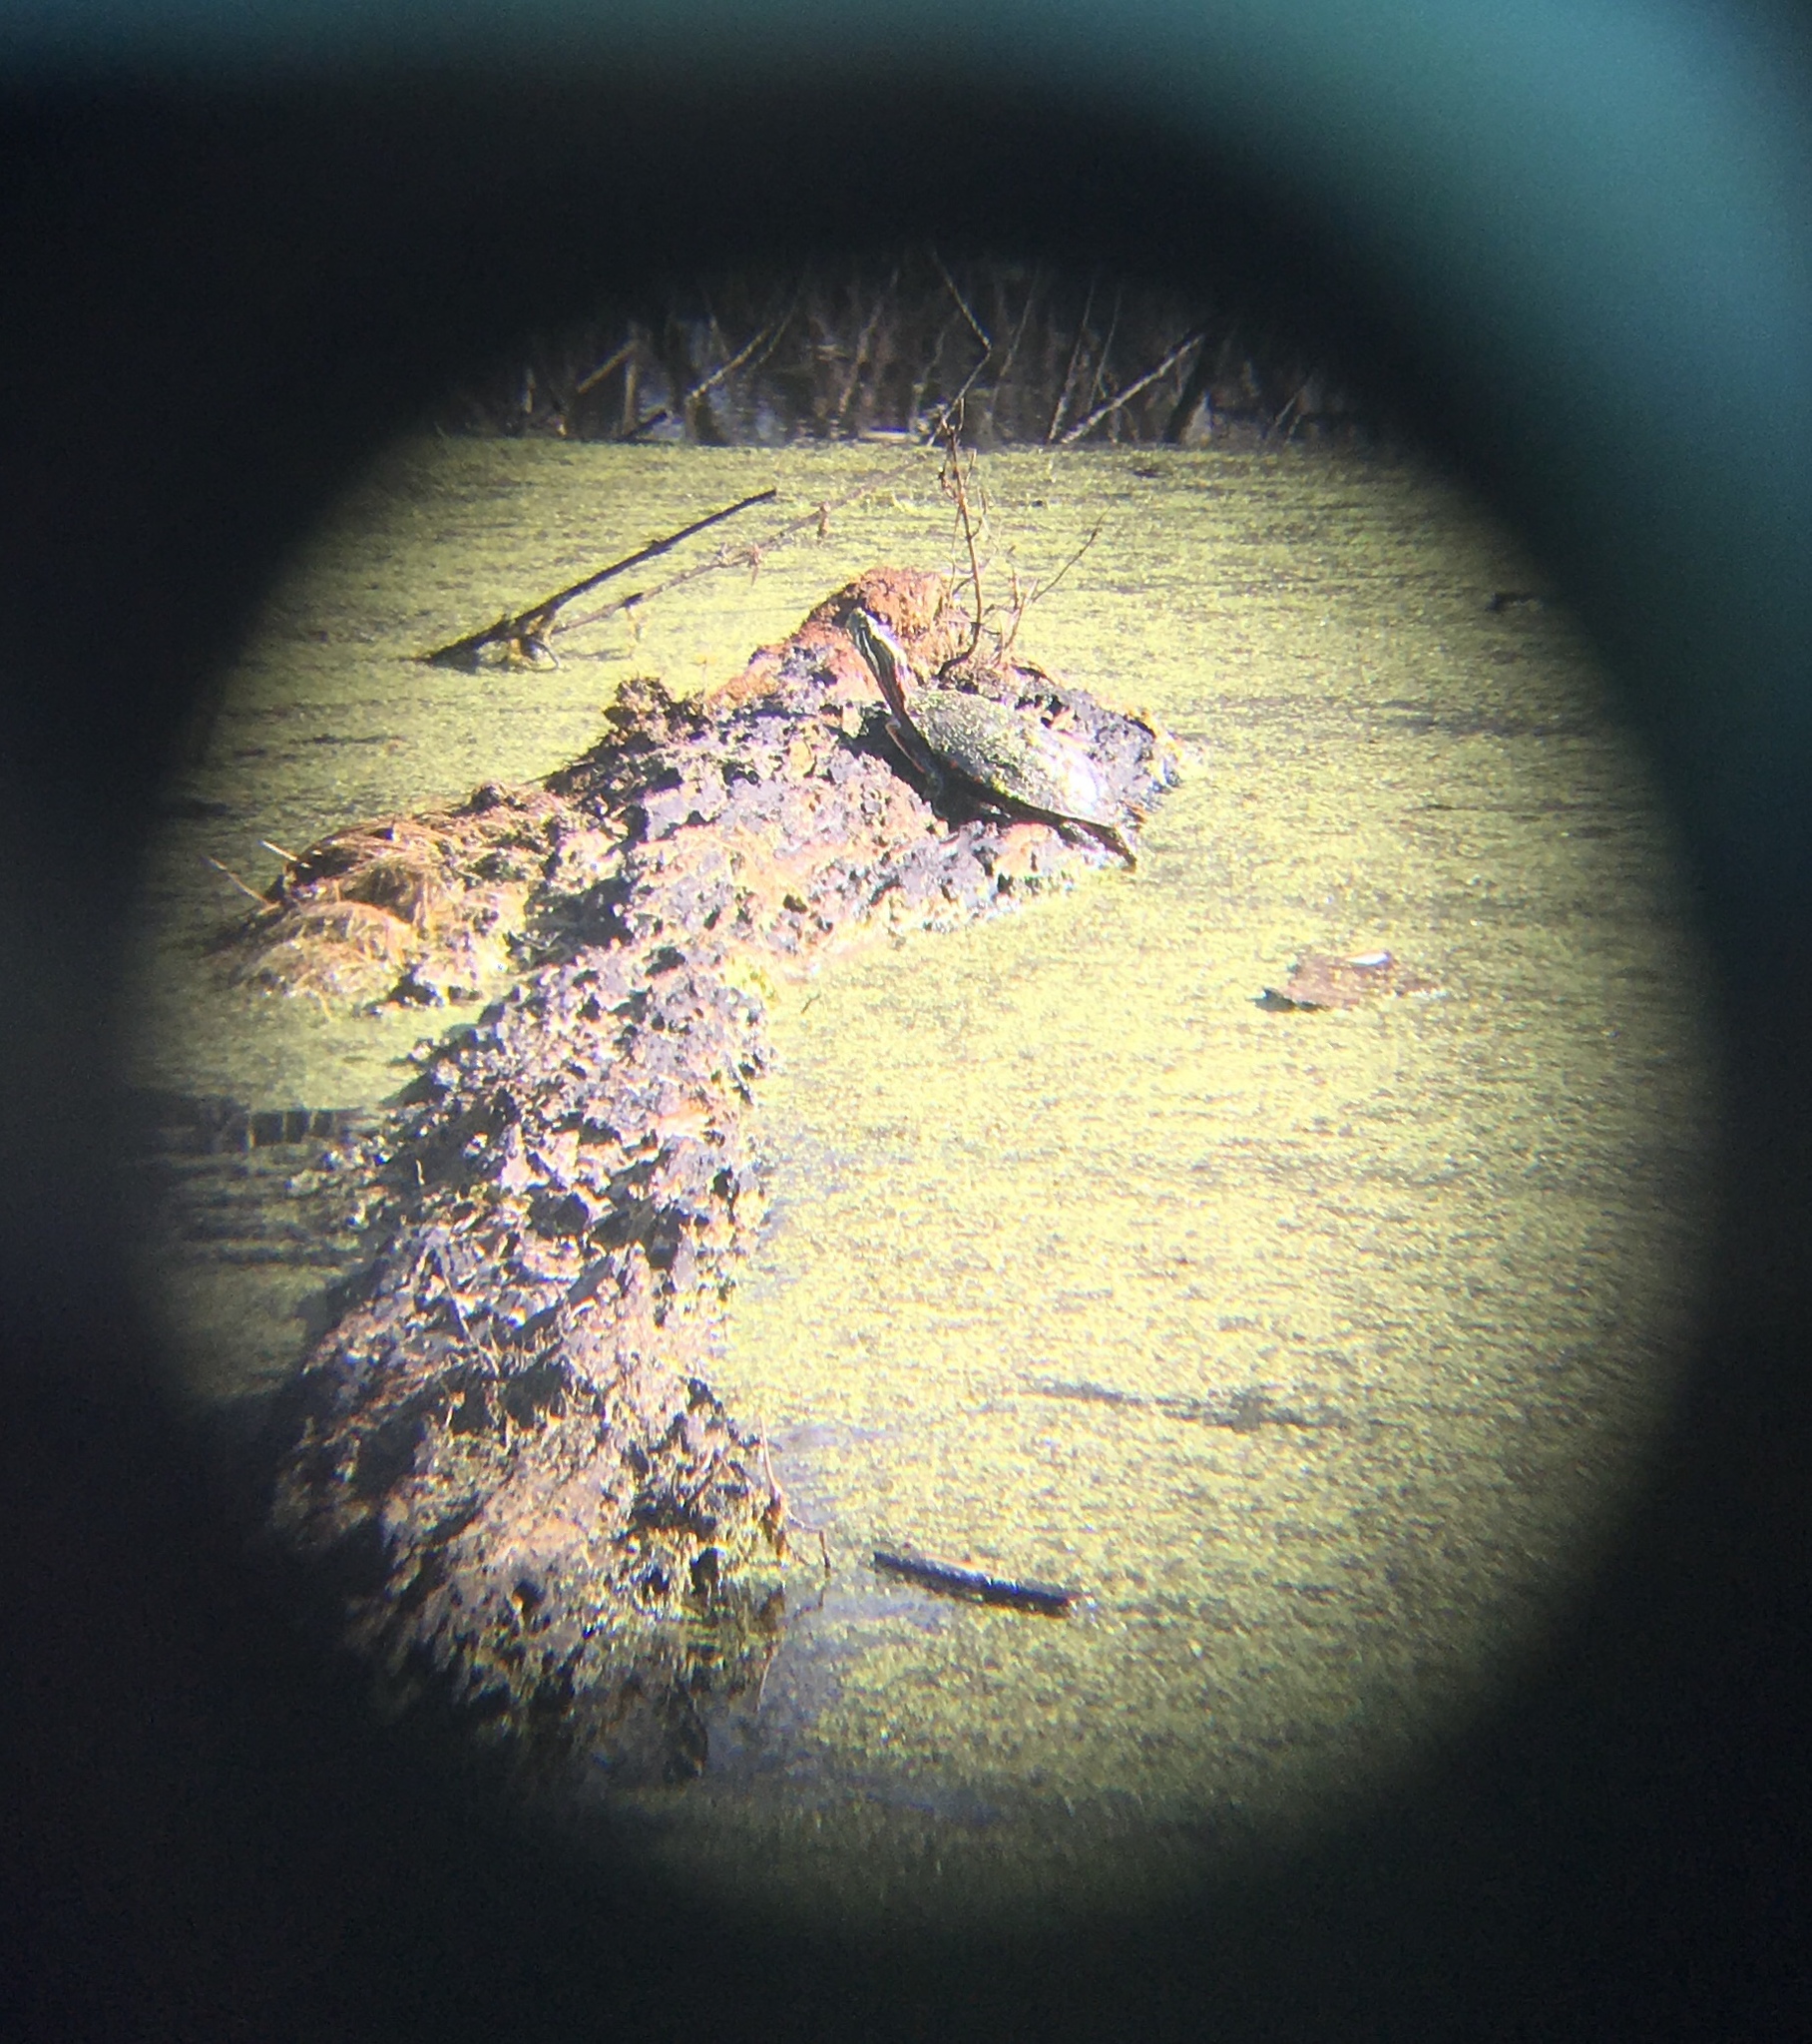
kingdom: Animalia
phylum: Chordata
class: Testudines
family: Emydidae
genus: Chrysemys
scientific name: Chrysemys picta
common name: Painted turtle
